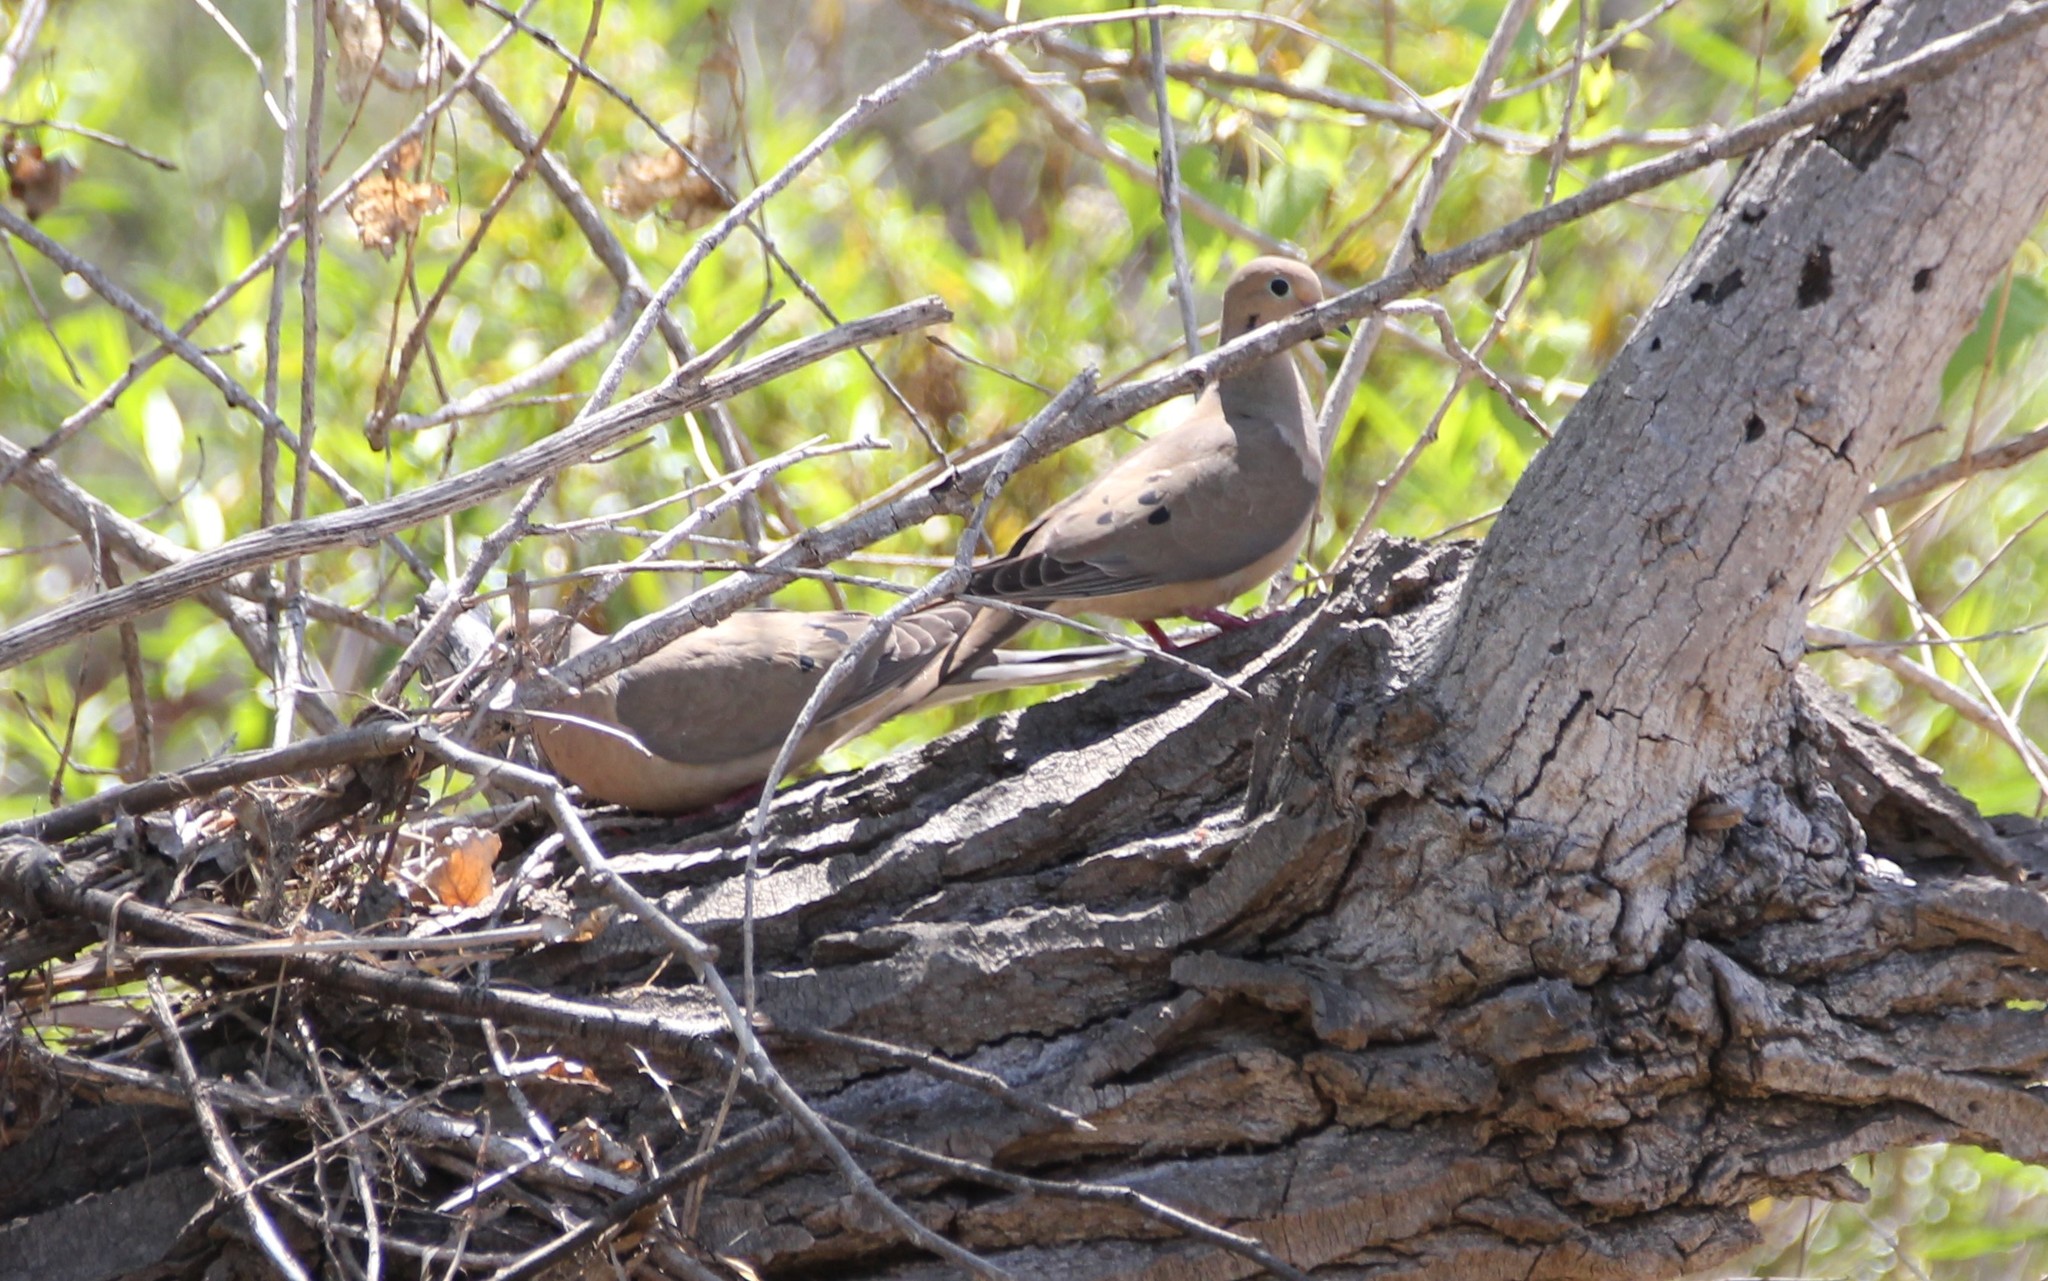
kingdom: Animalia
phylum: Chordata
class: Aves
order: Columbiformes
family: Columbidae
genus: Zenaida
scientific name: Zenaida macroura
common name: Mourning dove
